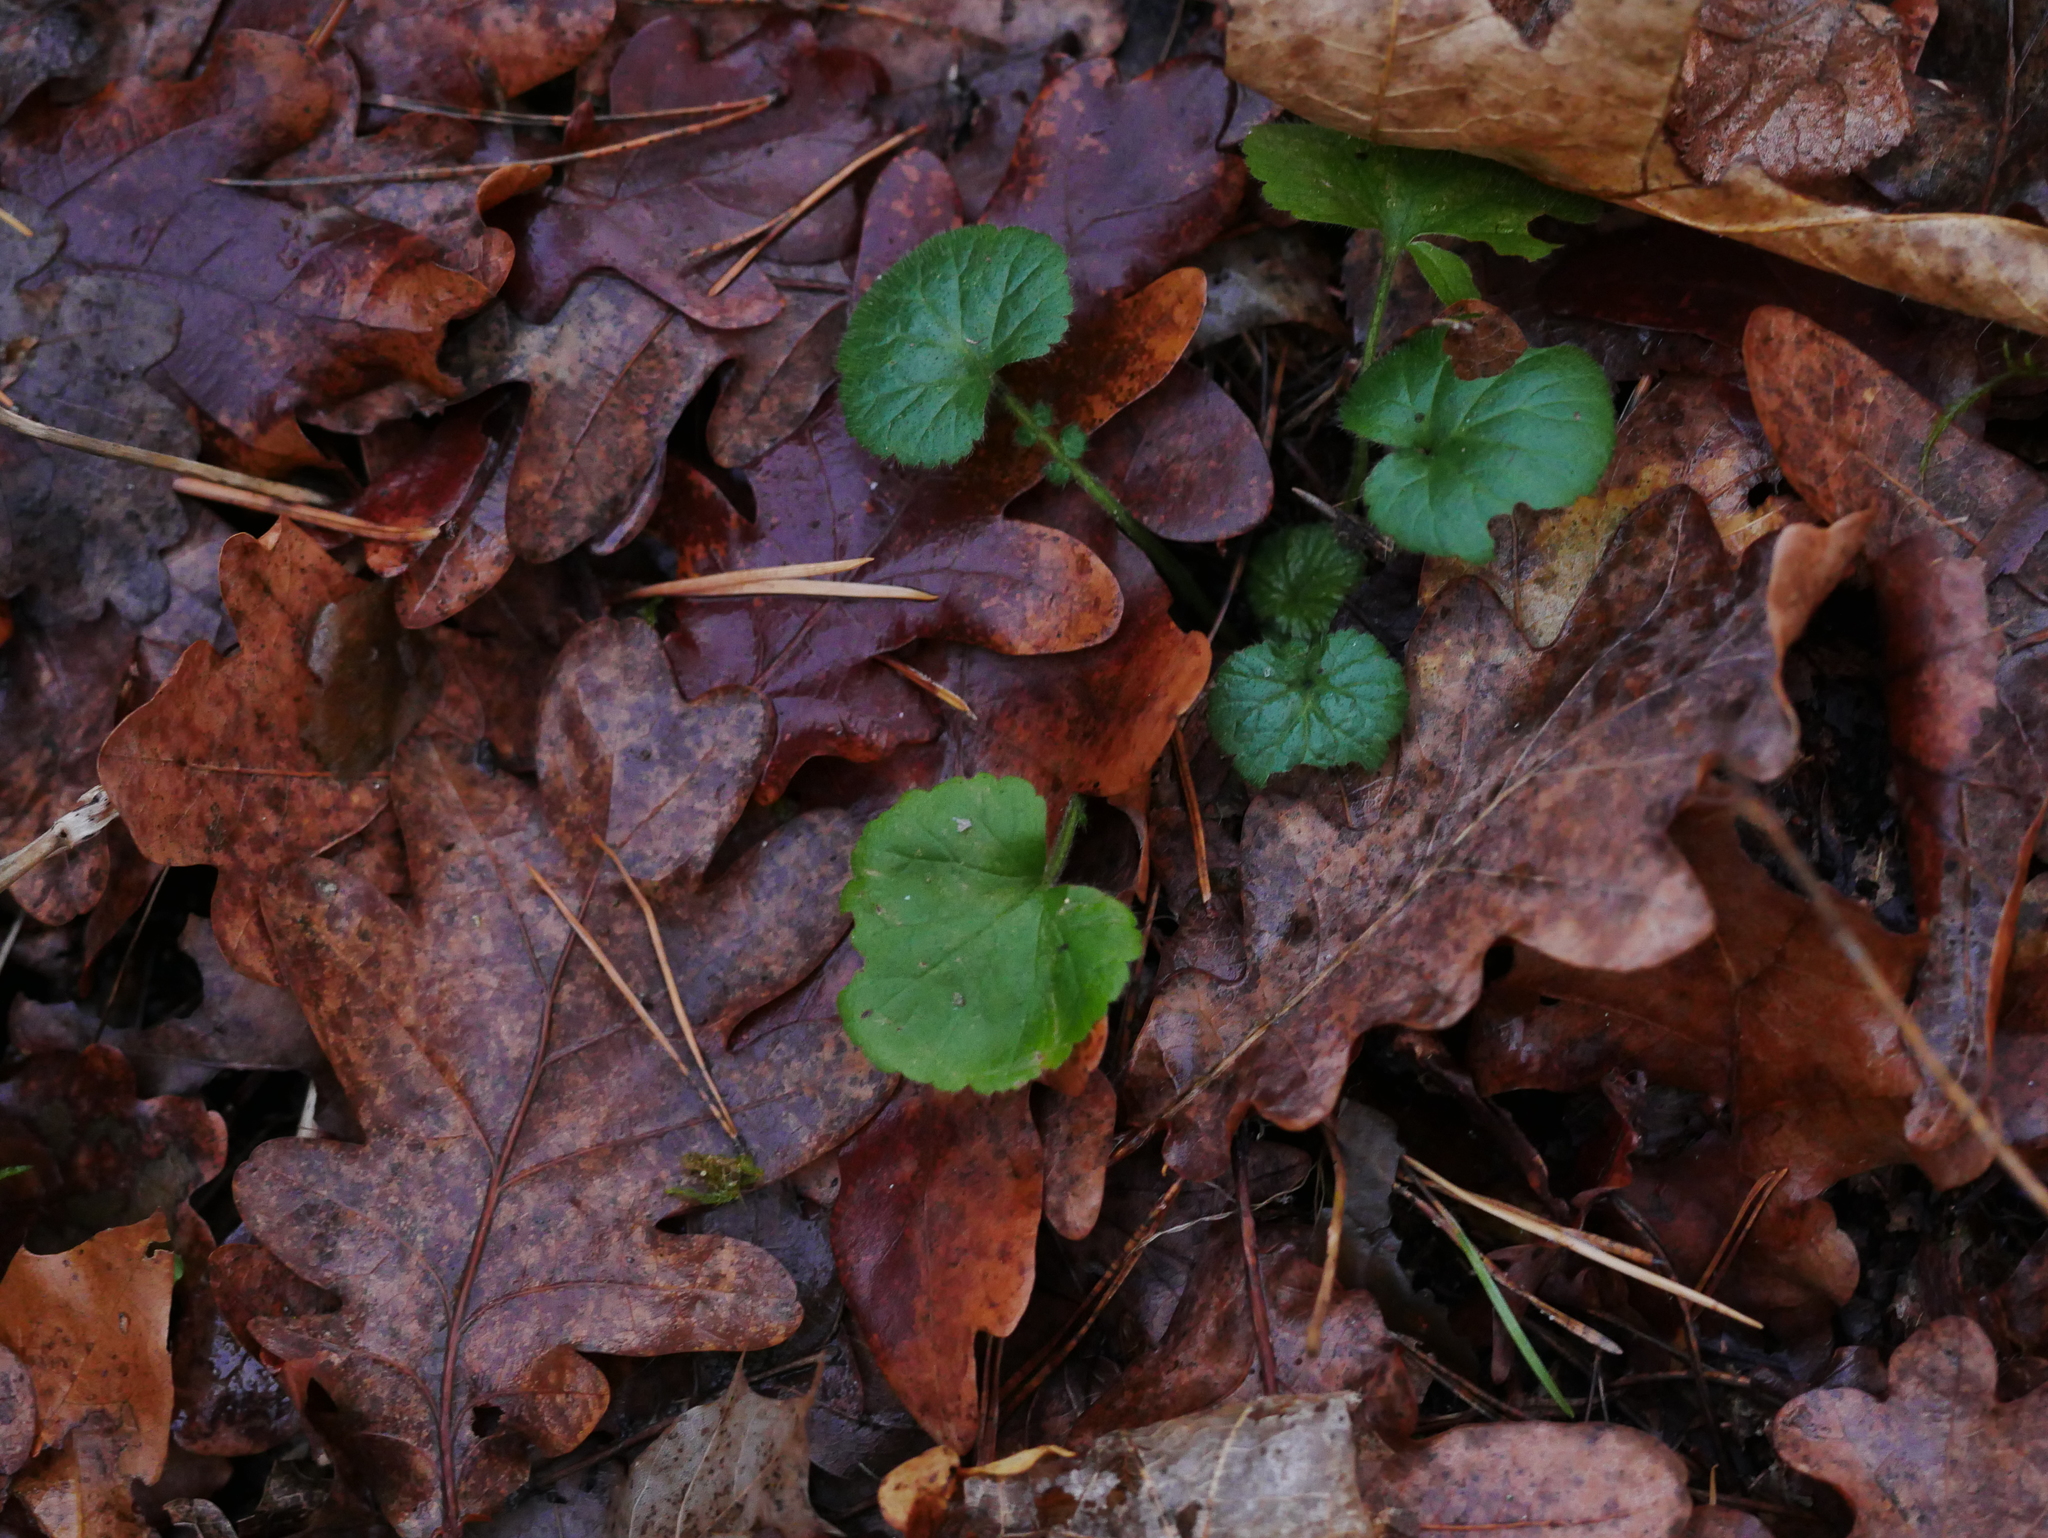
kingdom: Plantae
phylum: Tracheophyta
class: Magnoliopsida
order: Rosales
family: Rosaceae
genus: Geum
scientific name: Geum urbanum
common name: Wood avens
